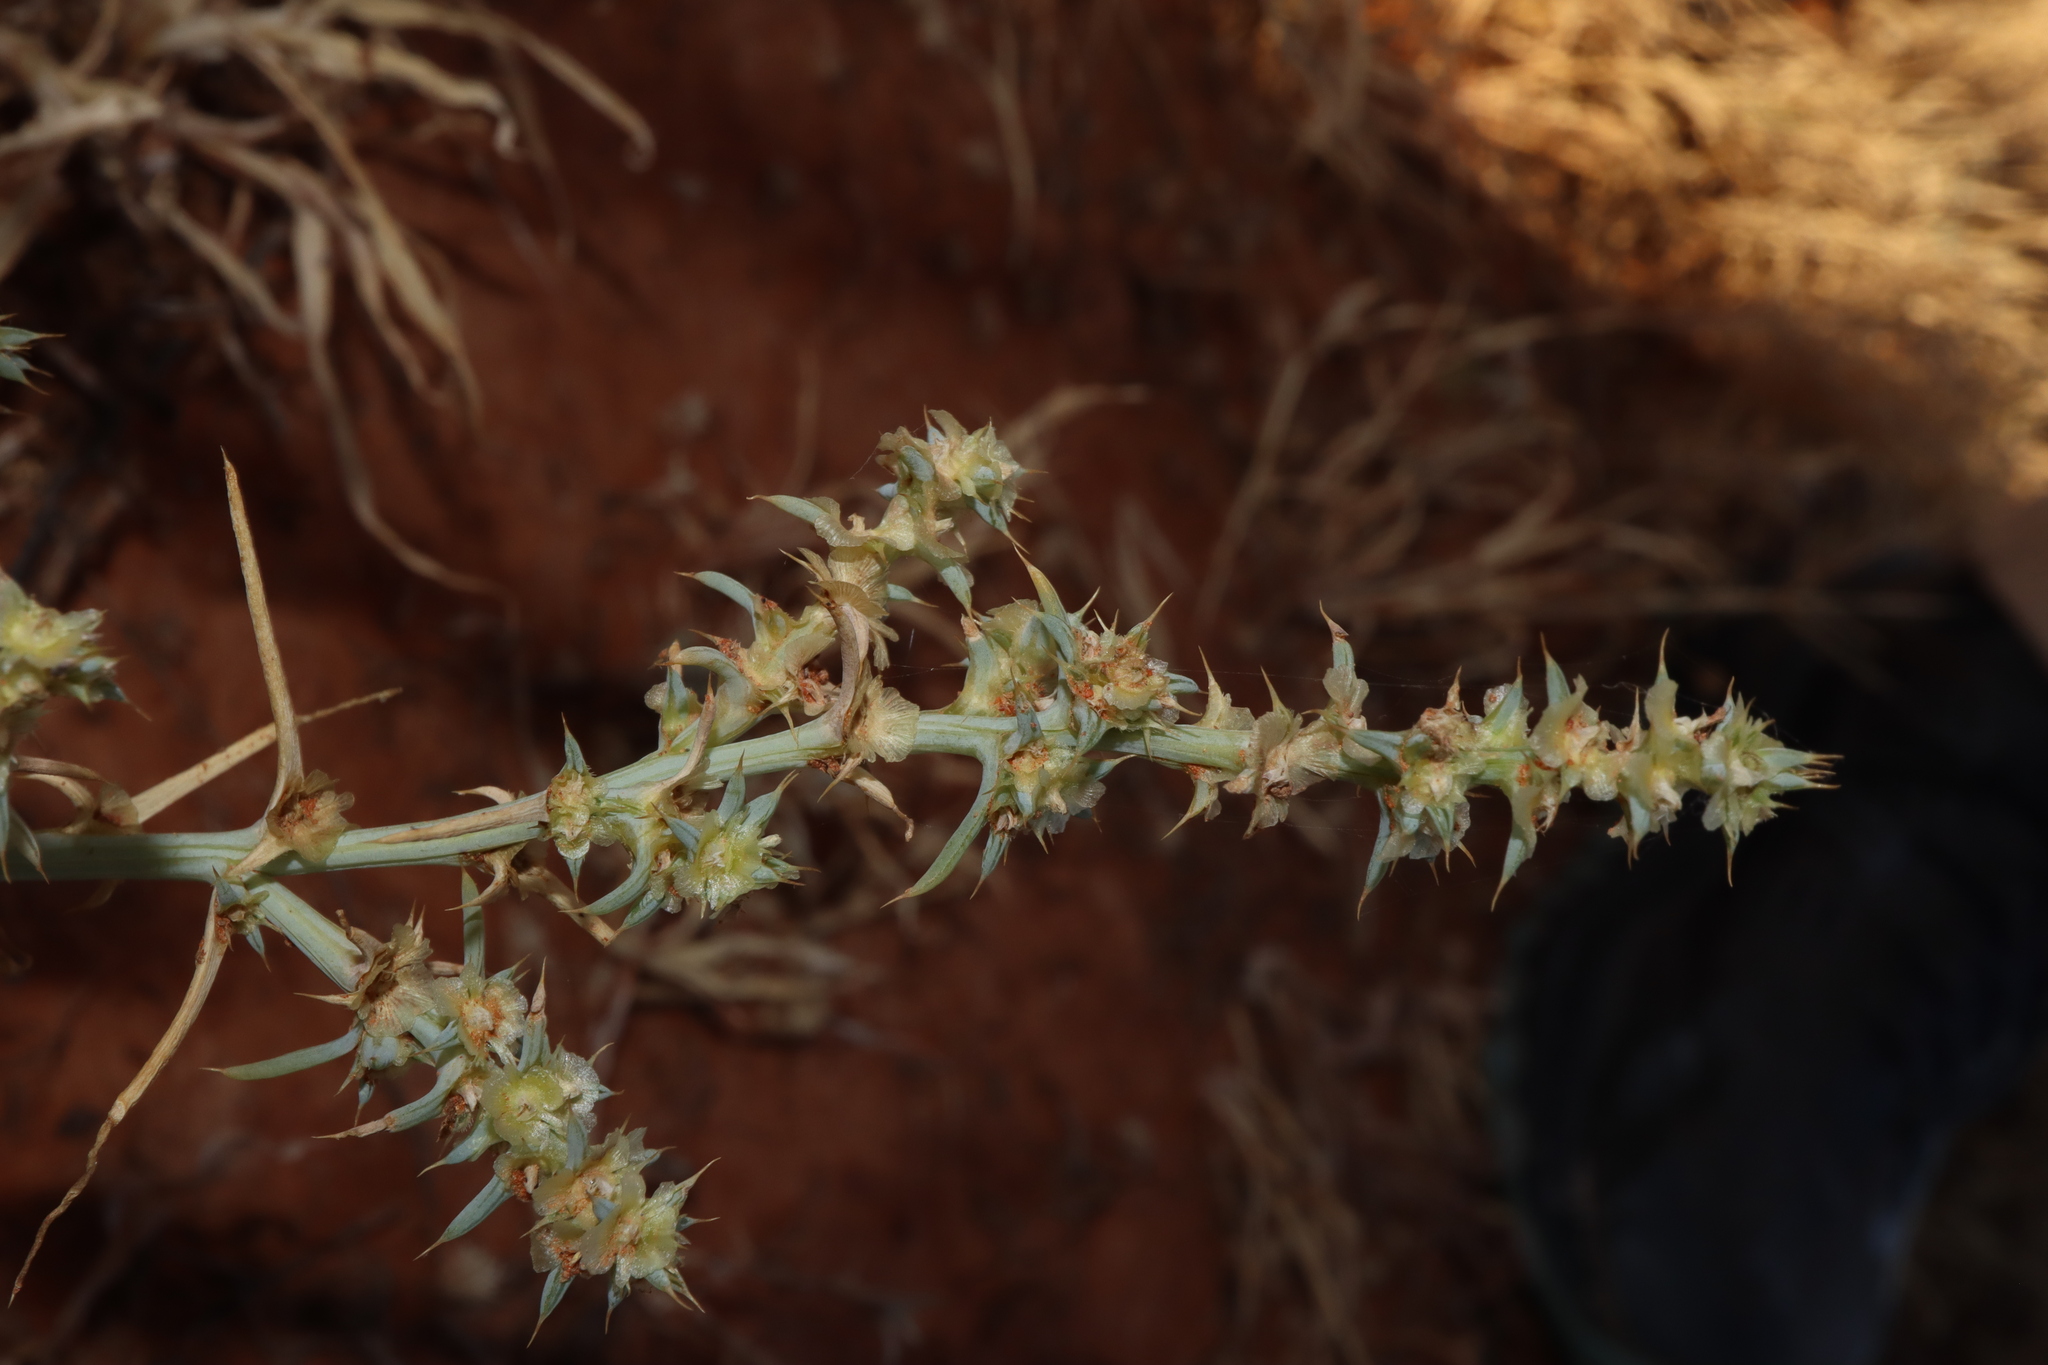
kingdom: Plantae
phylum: Tracheophyta
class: Magnoliopsida
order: Caryophyllales
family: Amaranthaceae
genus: Salsola
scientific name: Salsola australis
